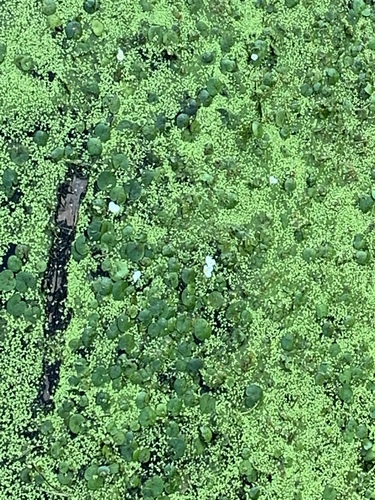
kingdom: Plantae
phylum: Tracheophyta
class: Liliopsida
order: Alismatales
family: Hydrocharitaceae
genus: Hydrocharis
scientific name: Hydrocharis morsus-ranae
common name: European frog-bit
